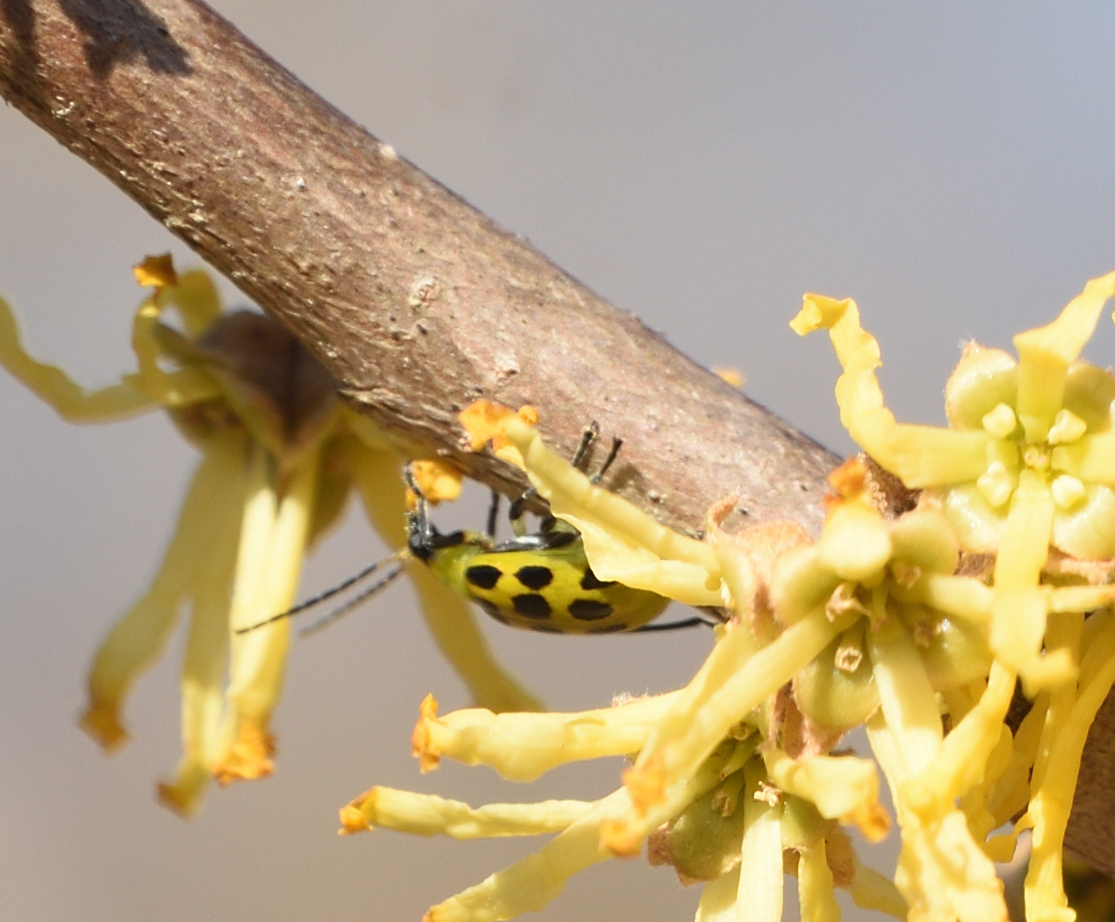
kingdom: Animalia
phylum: Arthropoda
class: Insecta
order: Coleoptera
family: Chrysomelidae
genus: Diabrotica
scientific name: Diabrotica undecimpunctata
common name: Spotted cucumber beetle
